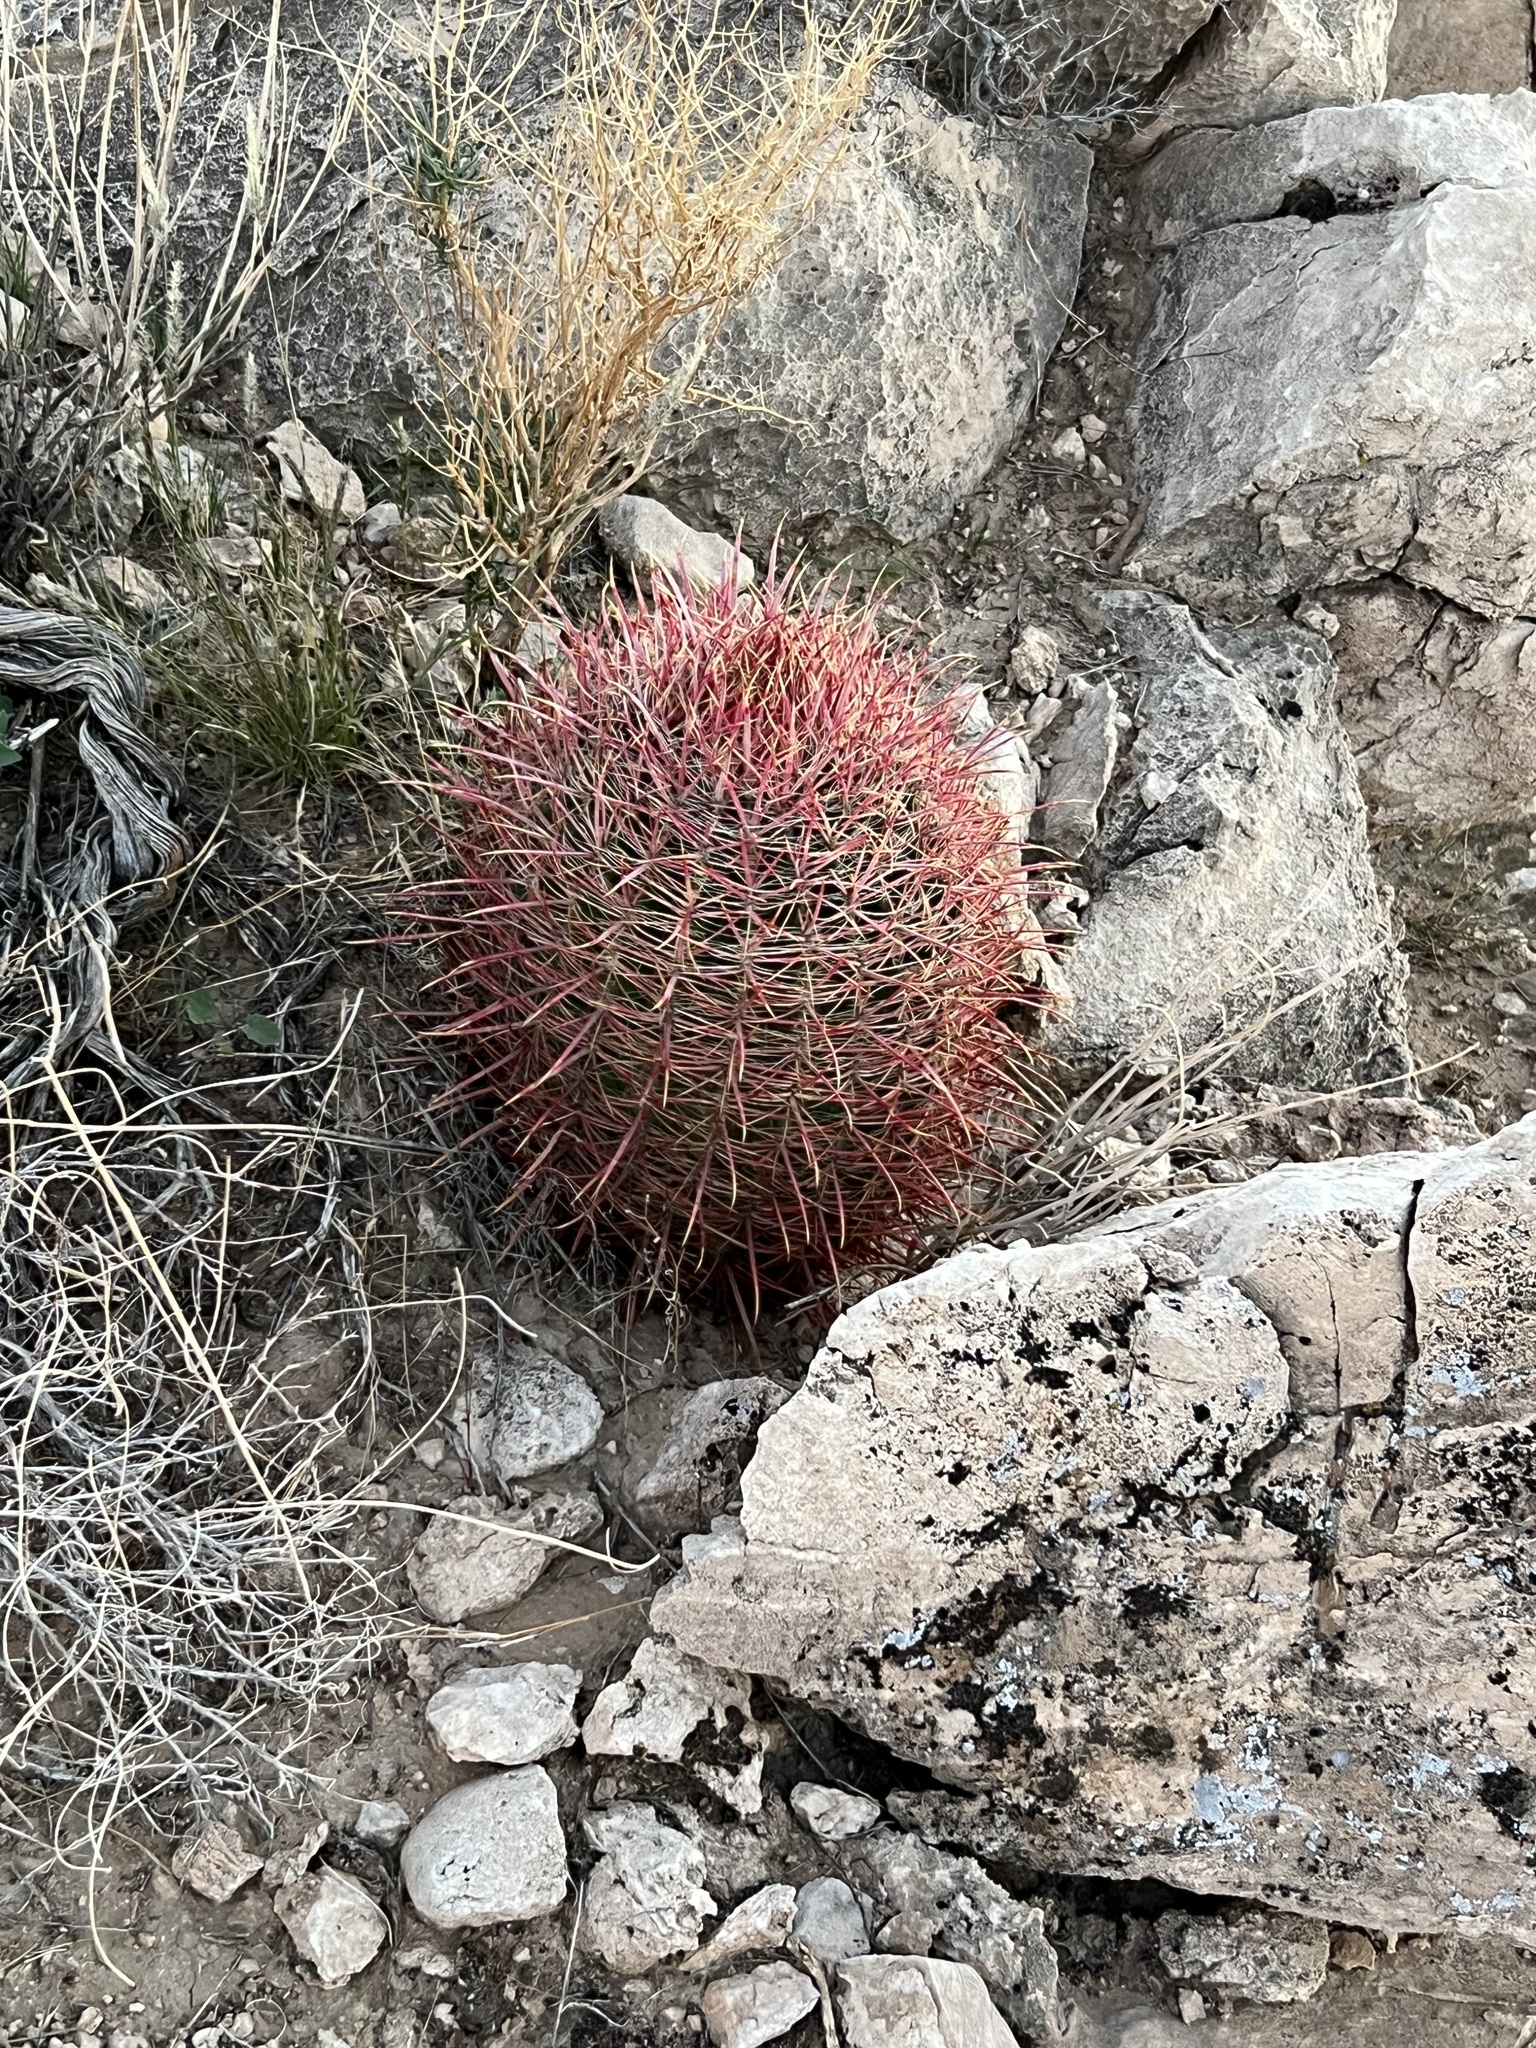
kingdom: Plantae
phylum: Tracheophyta
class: Magnoliopsida
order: Caryophyllales
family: Cactaceae
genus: Ferocactus
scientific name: Ferocactus cylindraceus
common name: California barrel cactus
